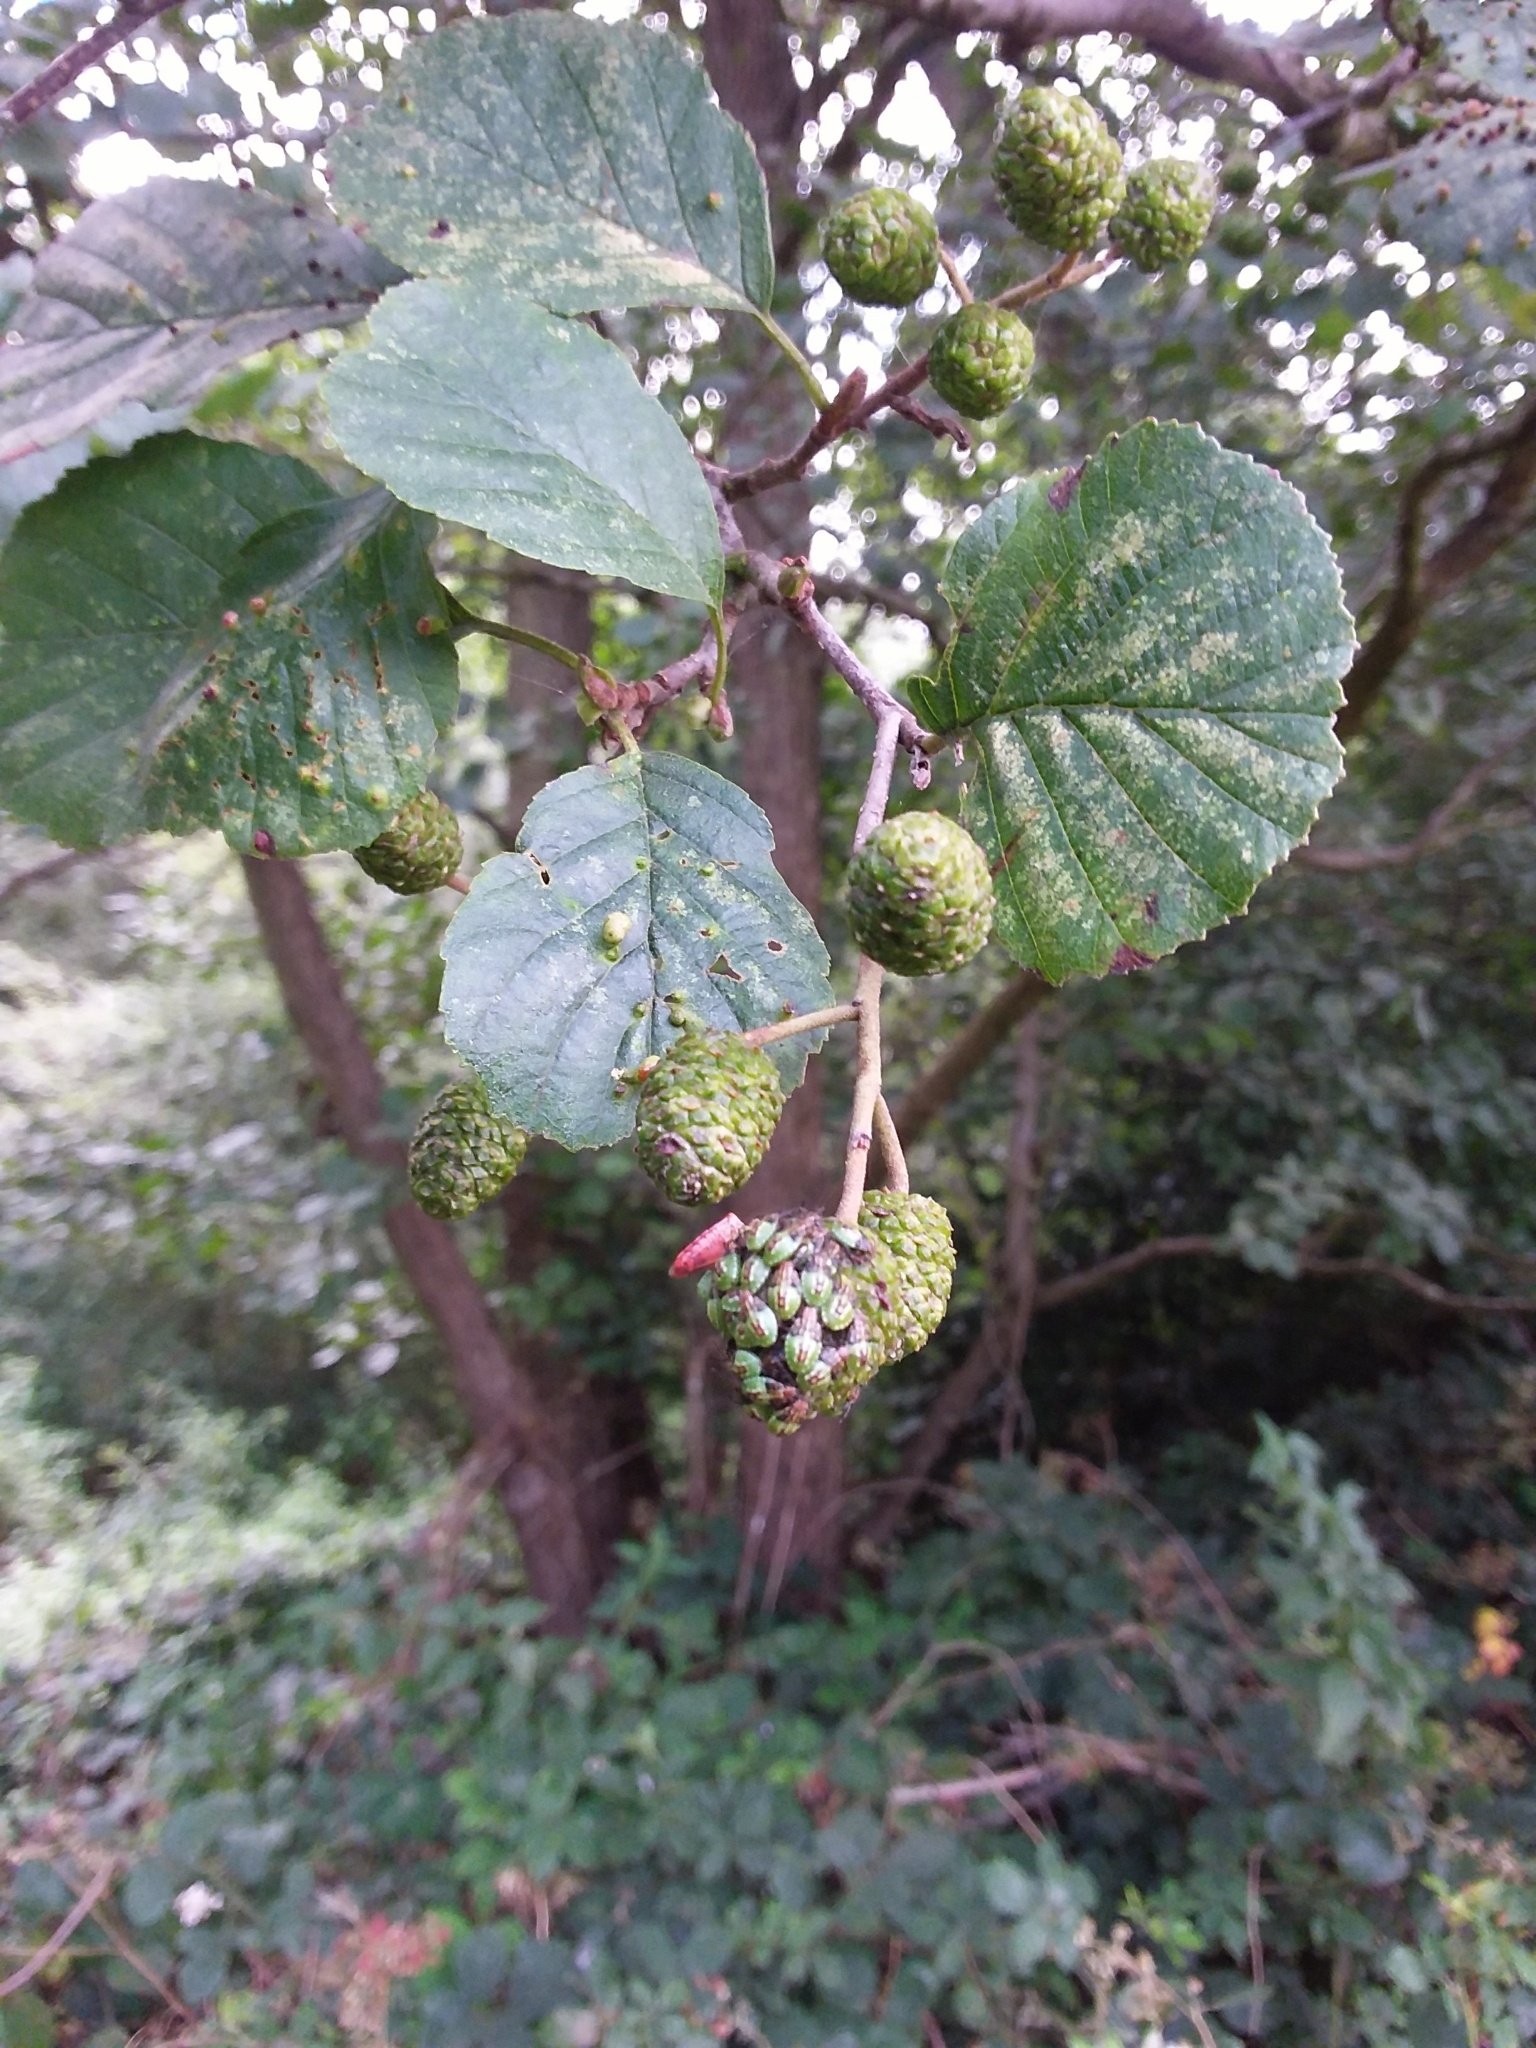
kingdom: Animalia
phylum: Arthropoda
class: Insecta
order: Hemiptera
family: Acanthosomatidae
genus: Elasmucha
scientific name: Elasmucha grisea
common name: Parent bug
